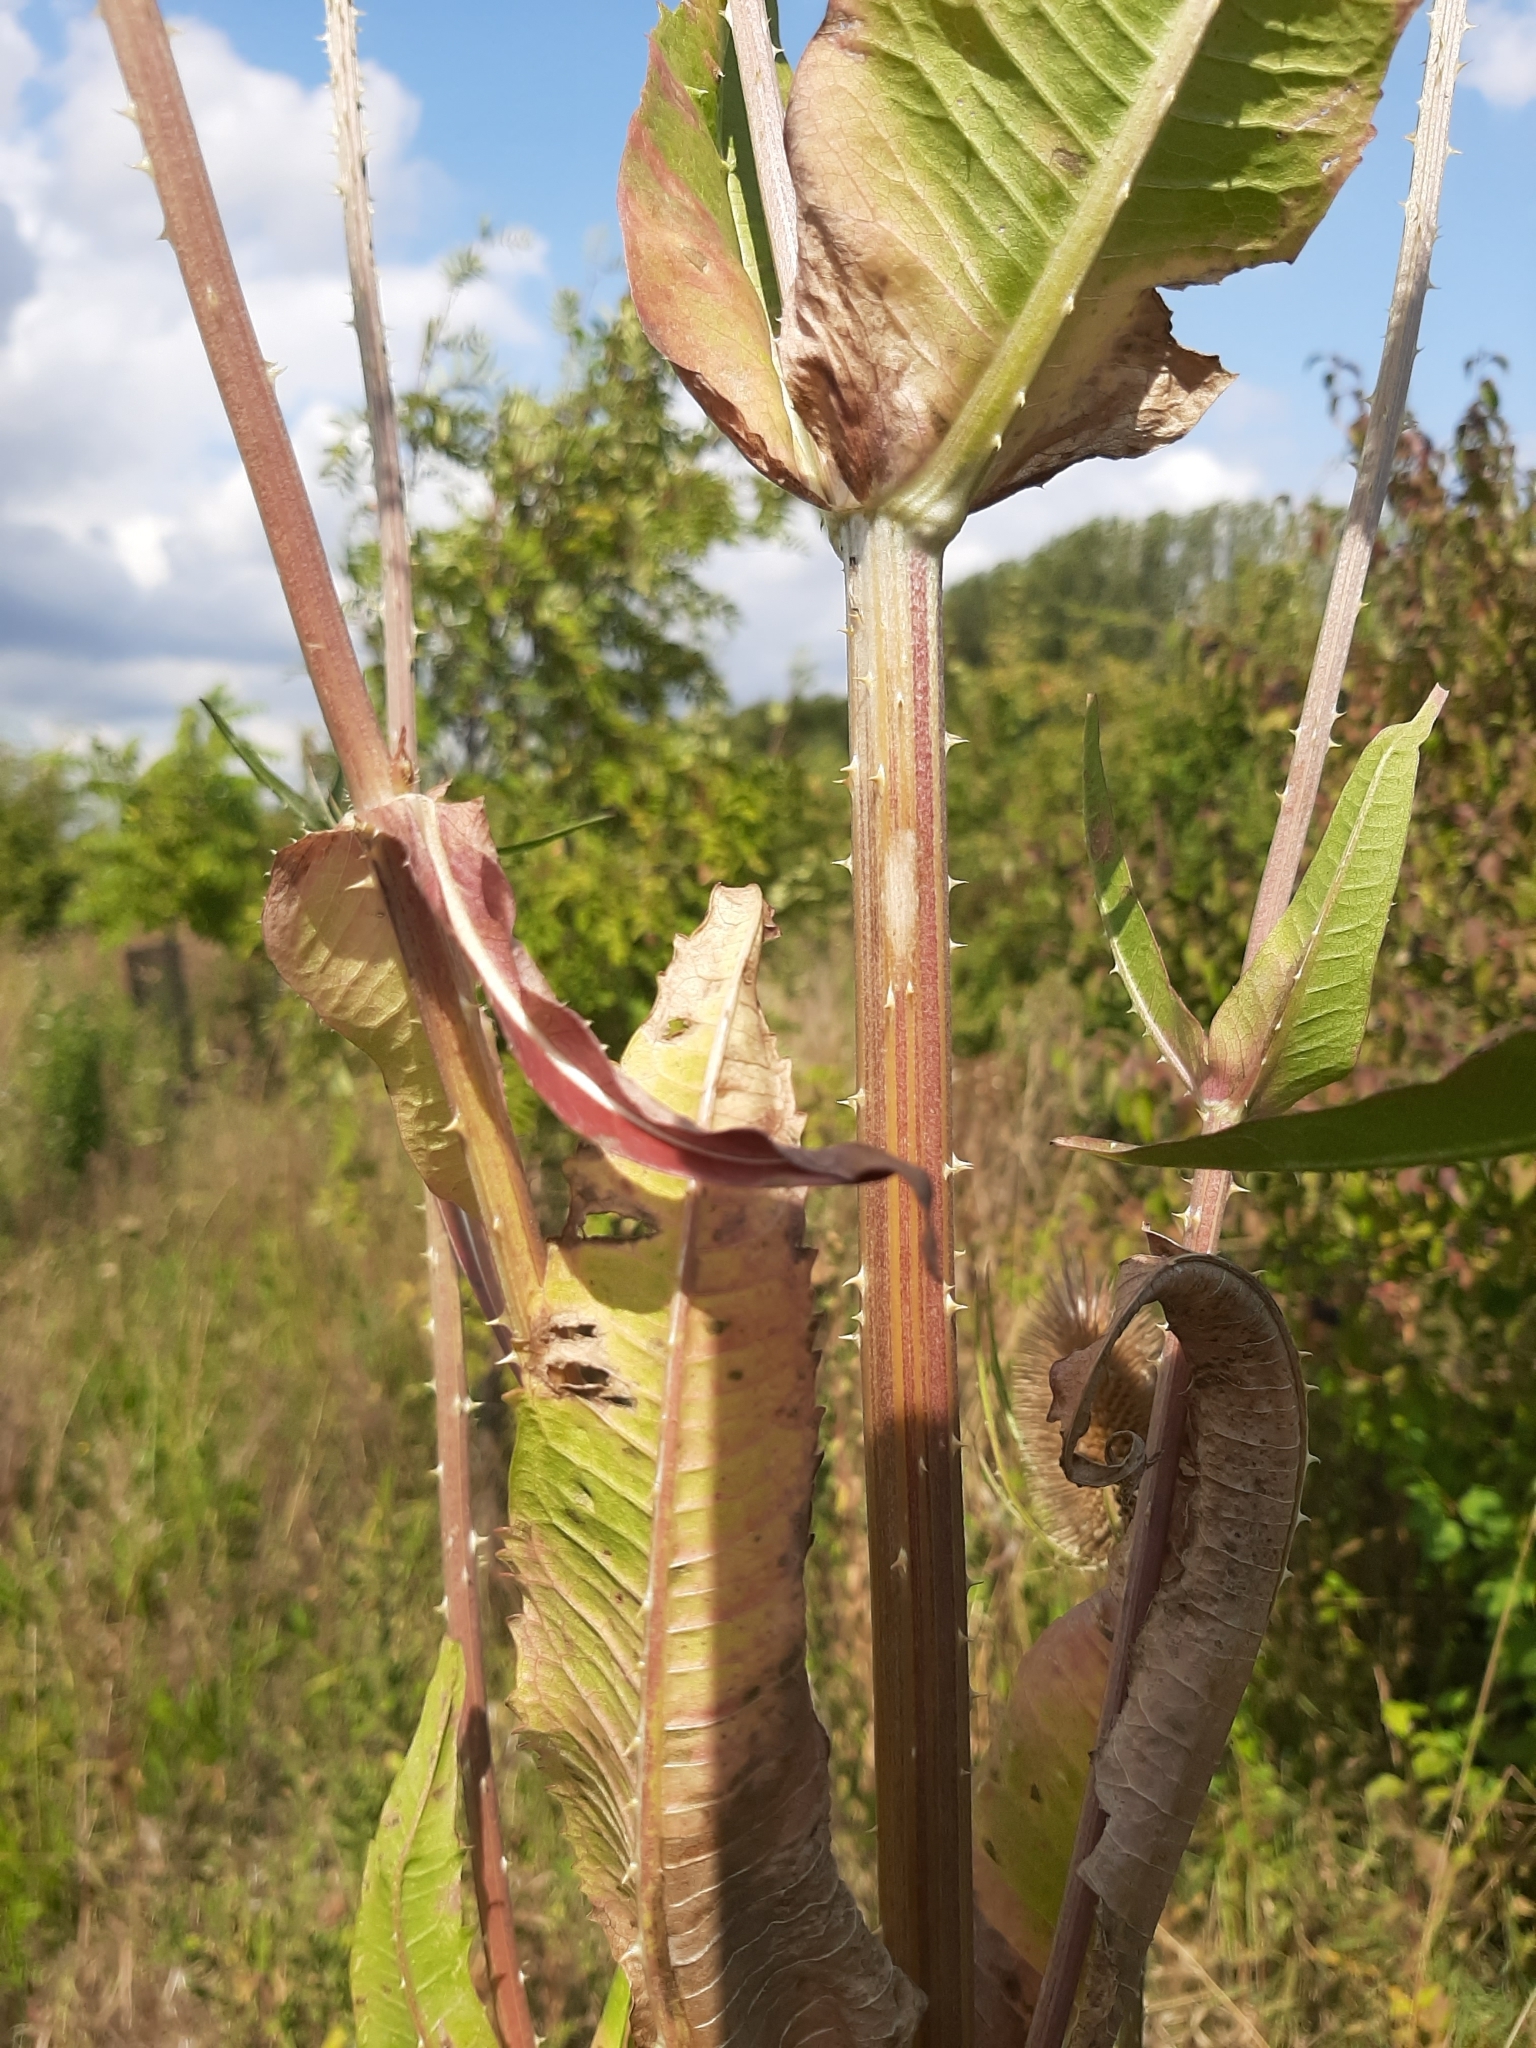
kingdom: Plantae
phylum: Tracheophyta
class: Magnoliopsida
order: Dipsacales
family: Caprifoliaceae
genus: Dipsacus
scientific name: Dipsacus fullonum
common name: Teasel
